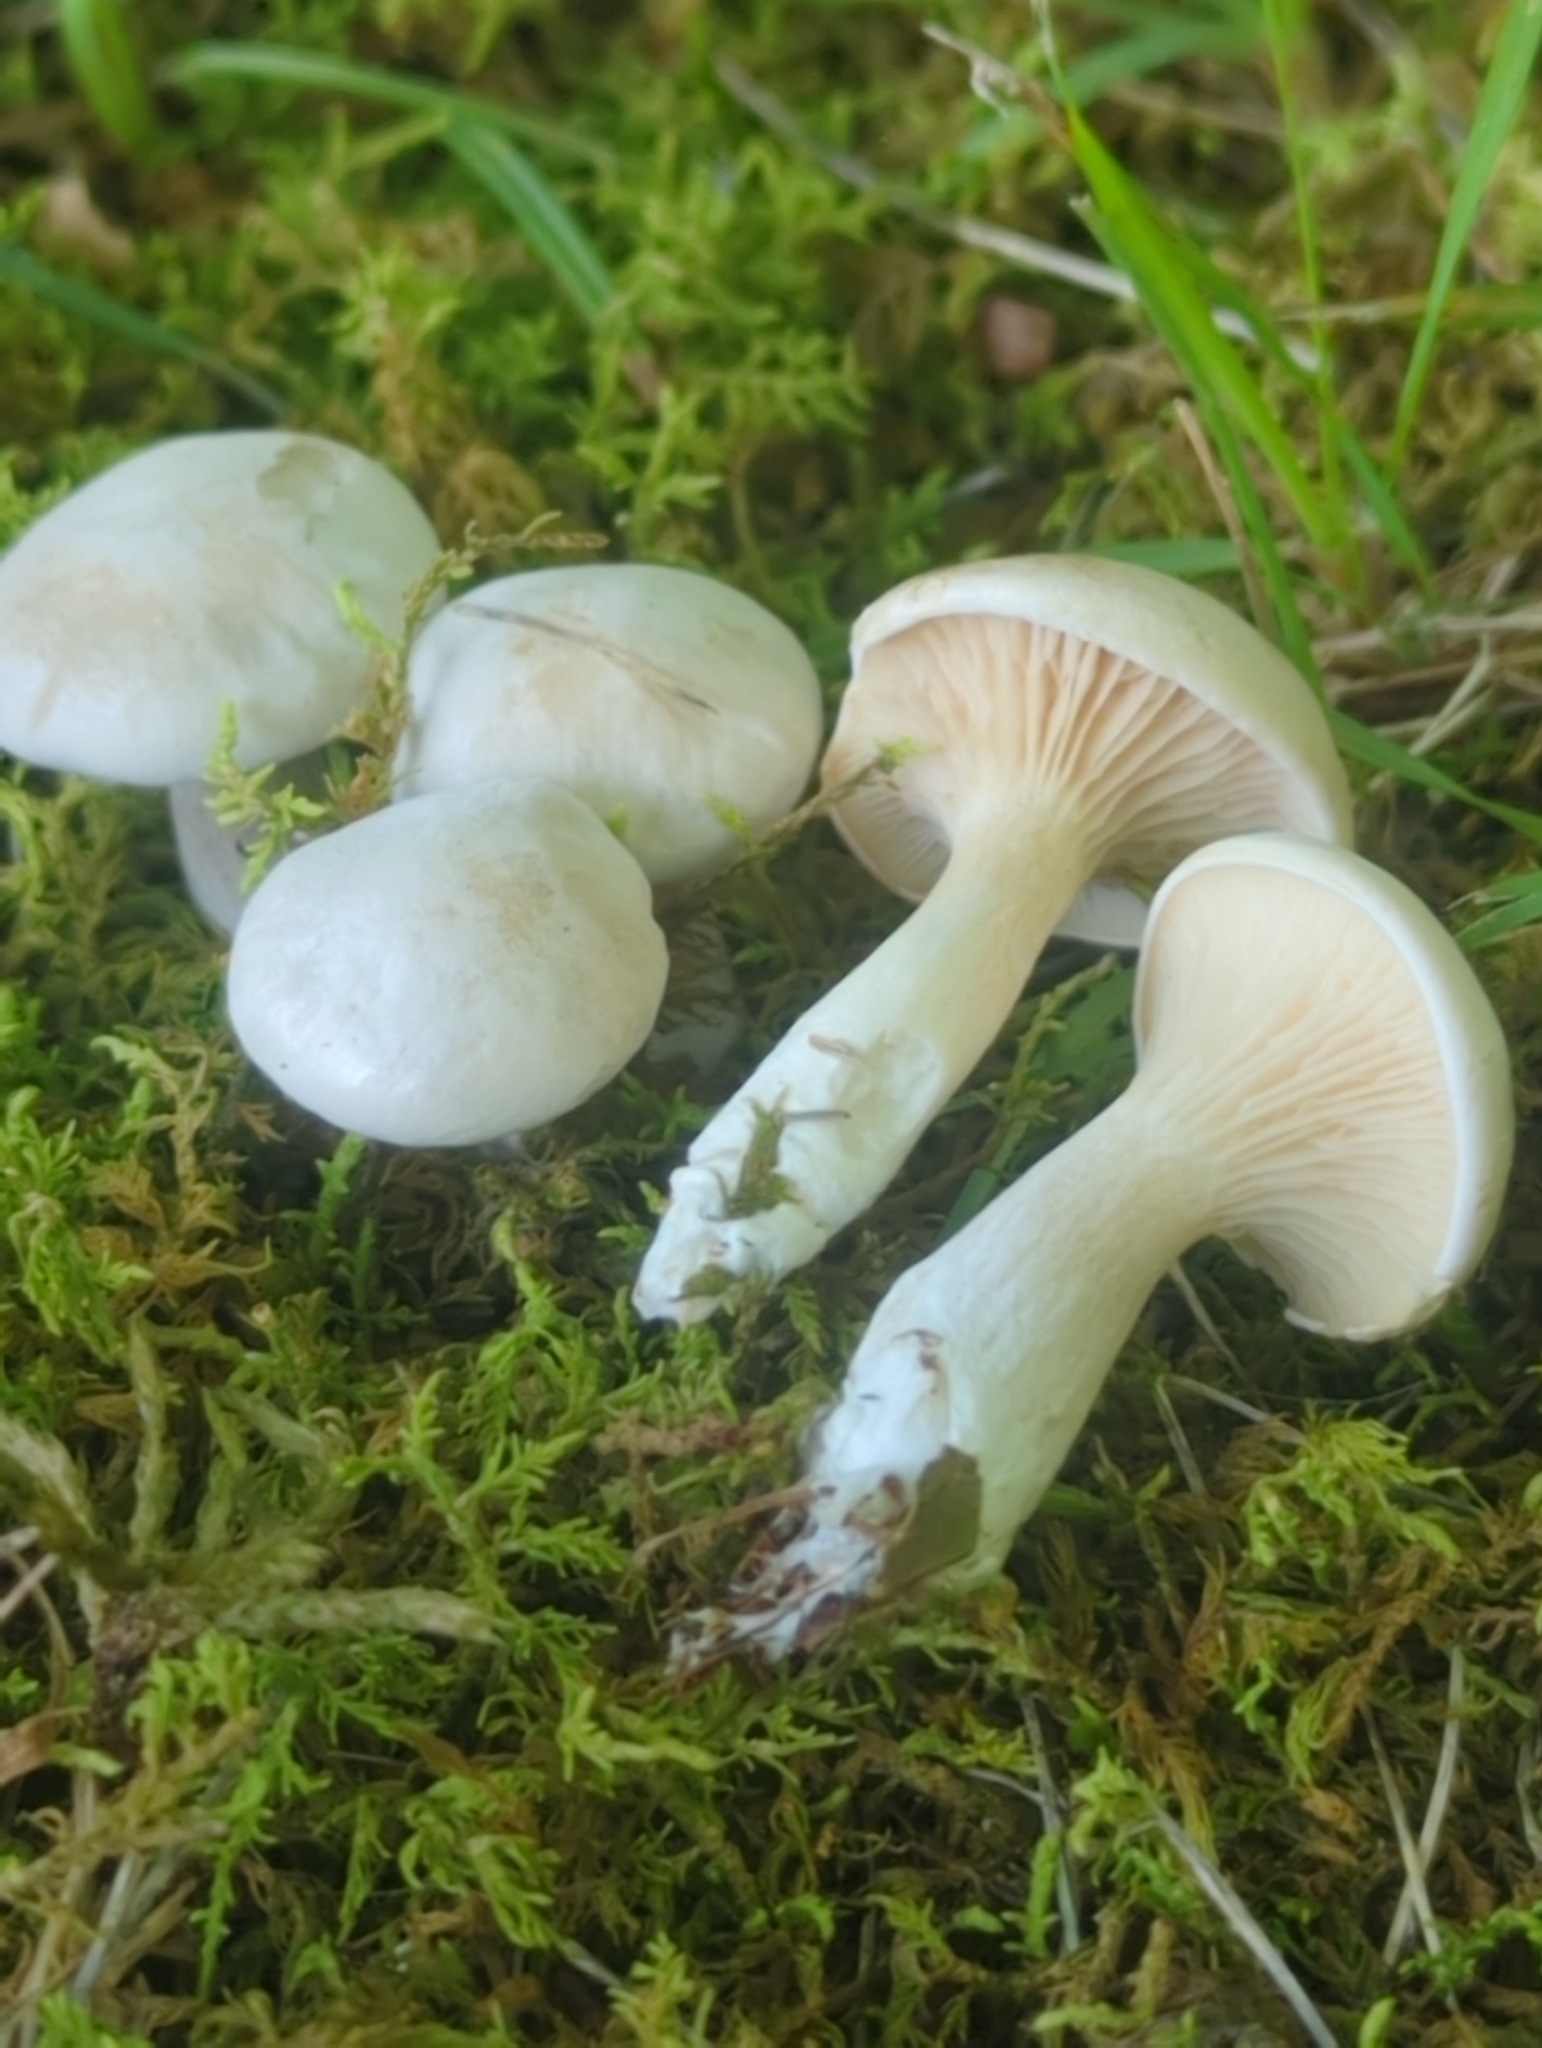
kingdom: Fungi
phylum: Basidiomycota
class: Agaricomycetes
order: Agaricales
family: Entolomataceae
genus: Clitopilus
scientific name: Clitopilus prunulus
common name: The miller
